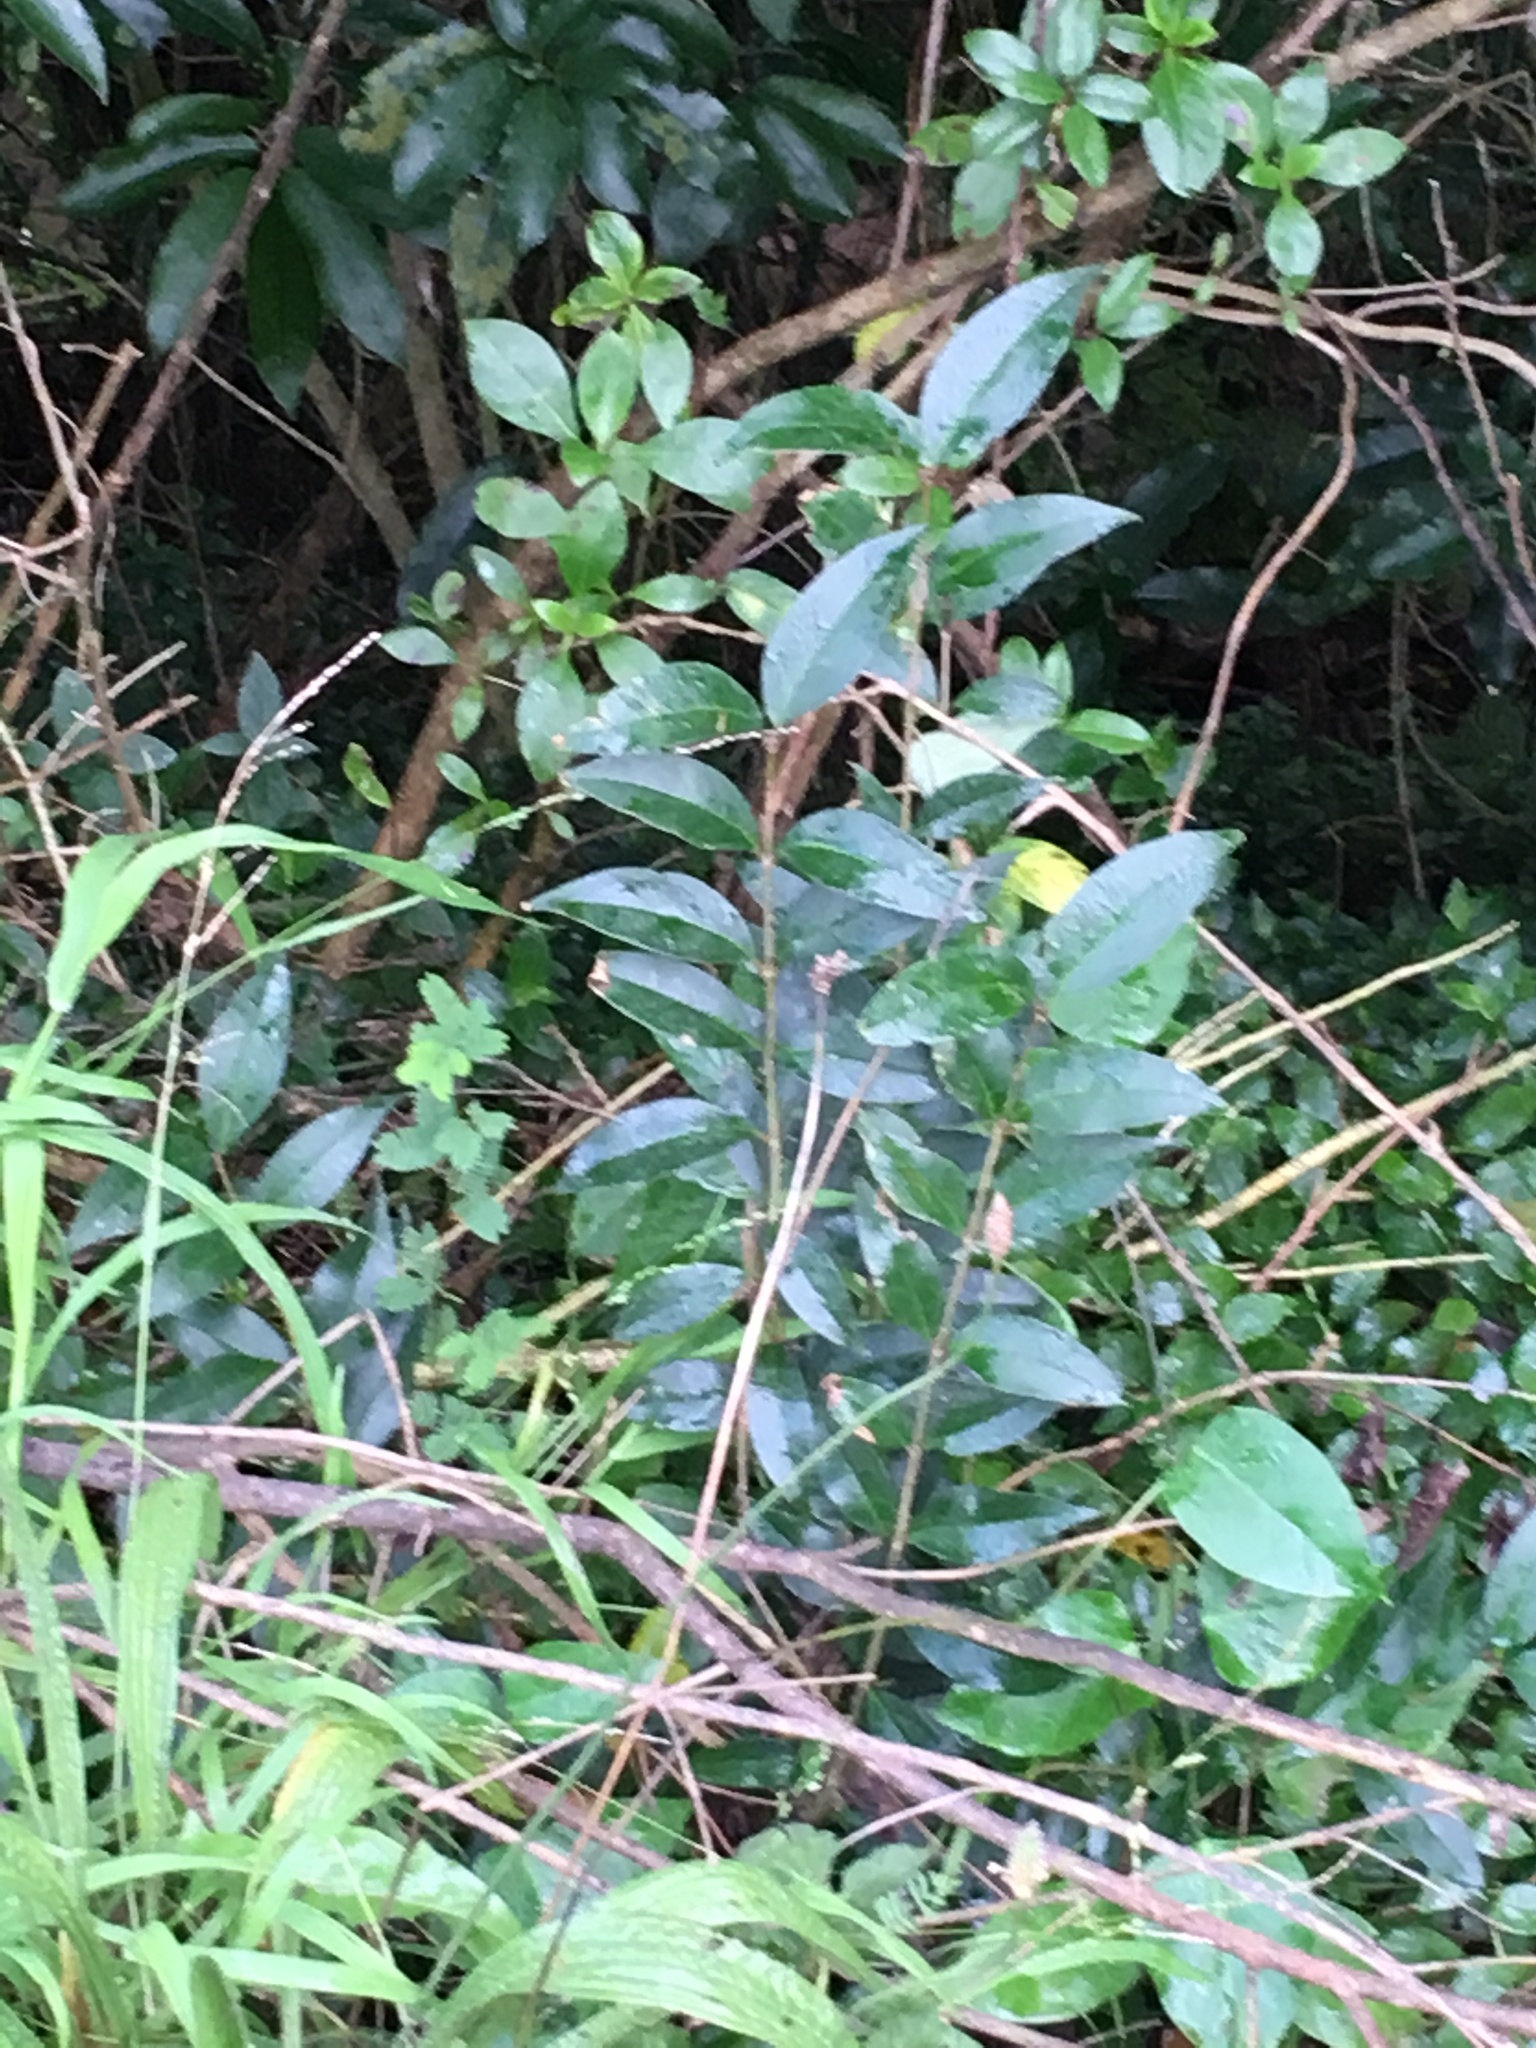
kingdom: Plantae
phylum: Tracheophyta
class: Magnoliopsida
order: Lamiales
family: Oleaceae
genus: Ligustrum
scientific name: Ligustrum lucidum
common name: Glossy privet
